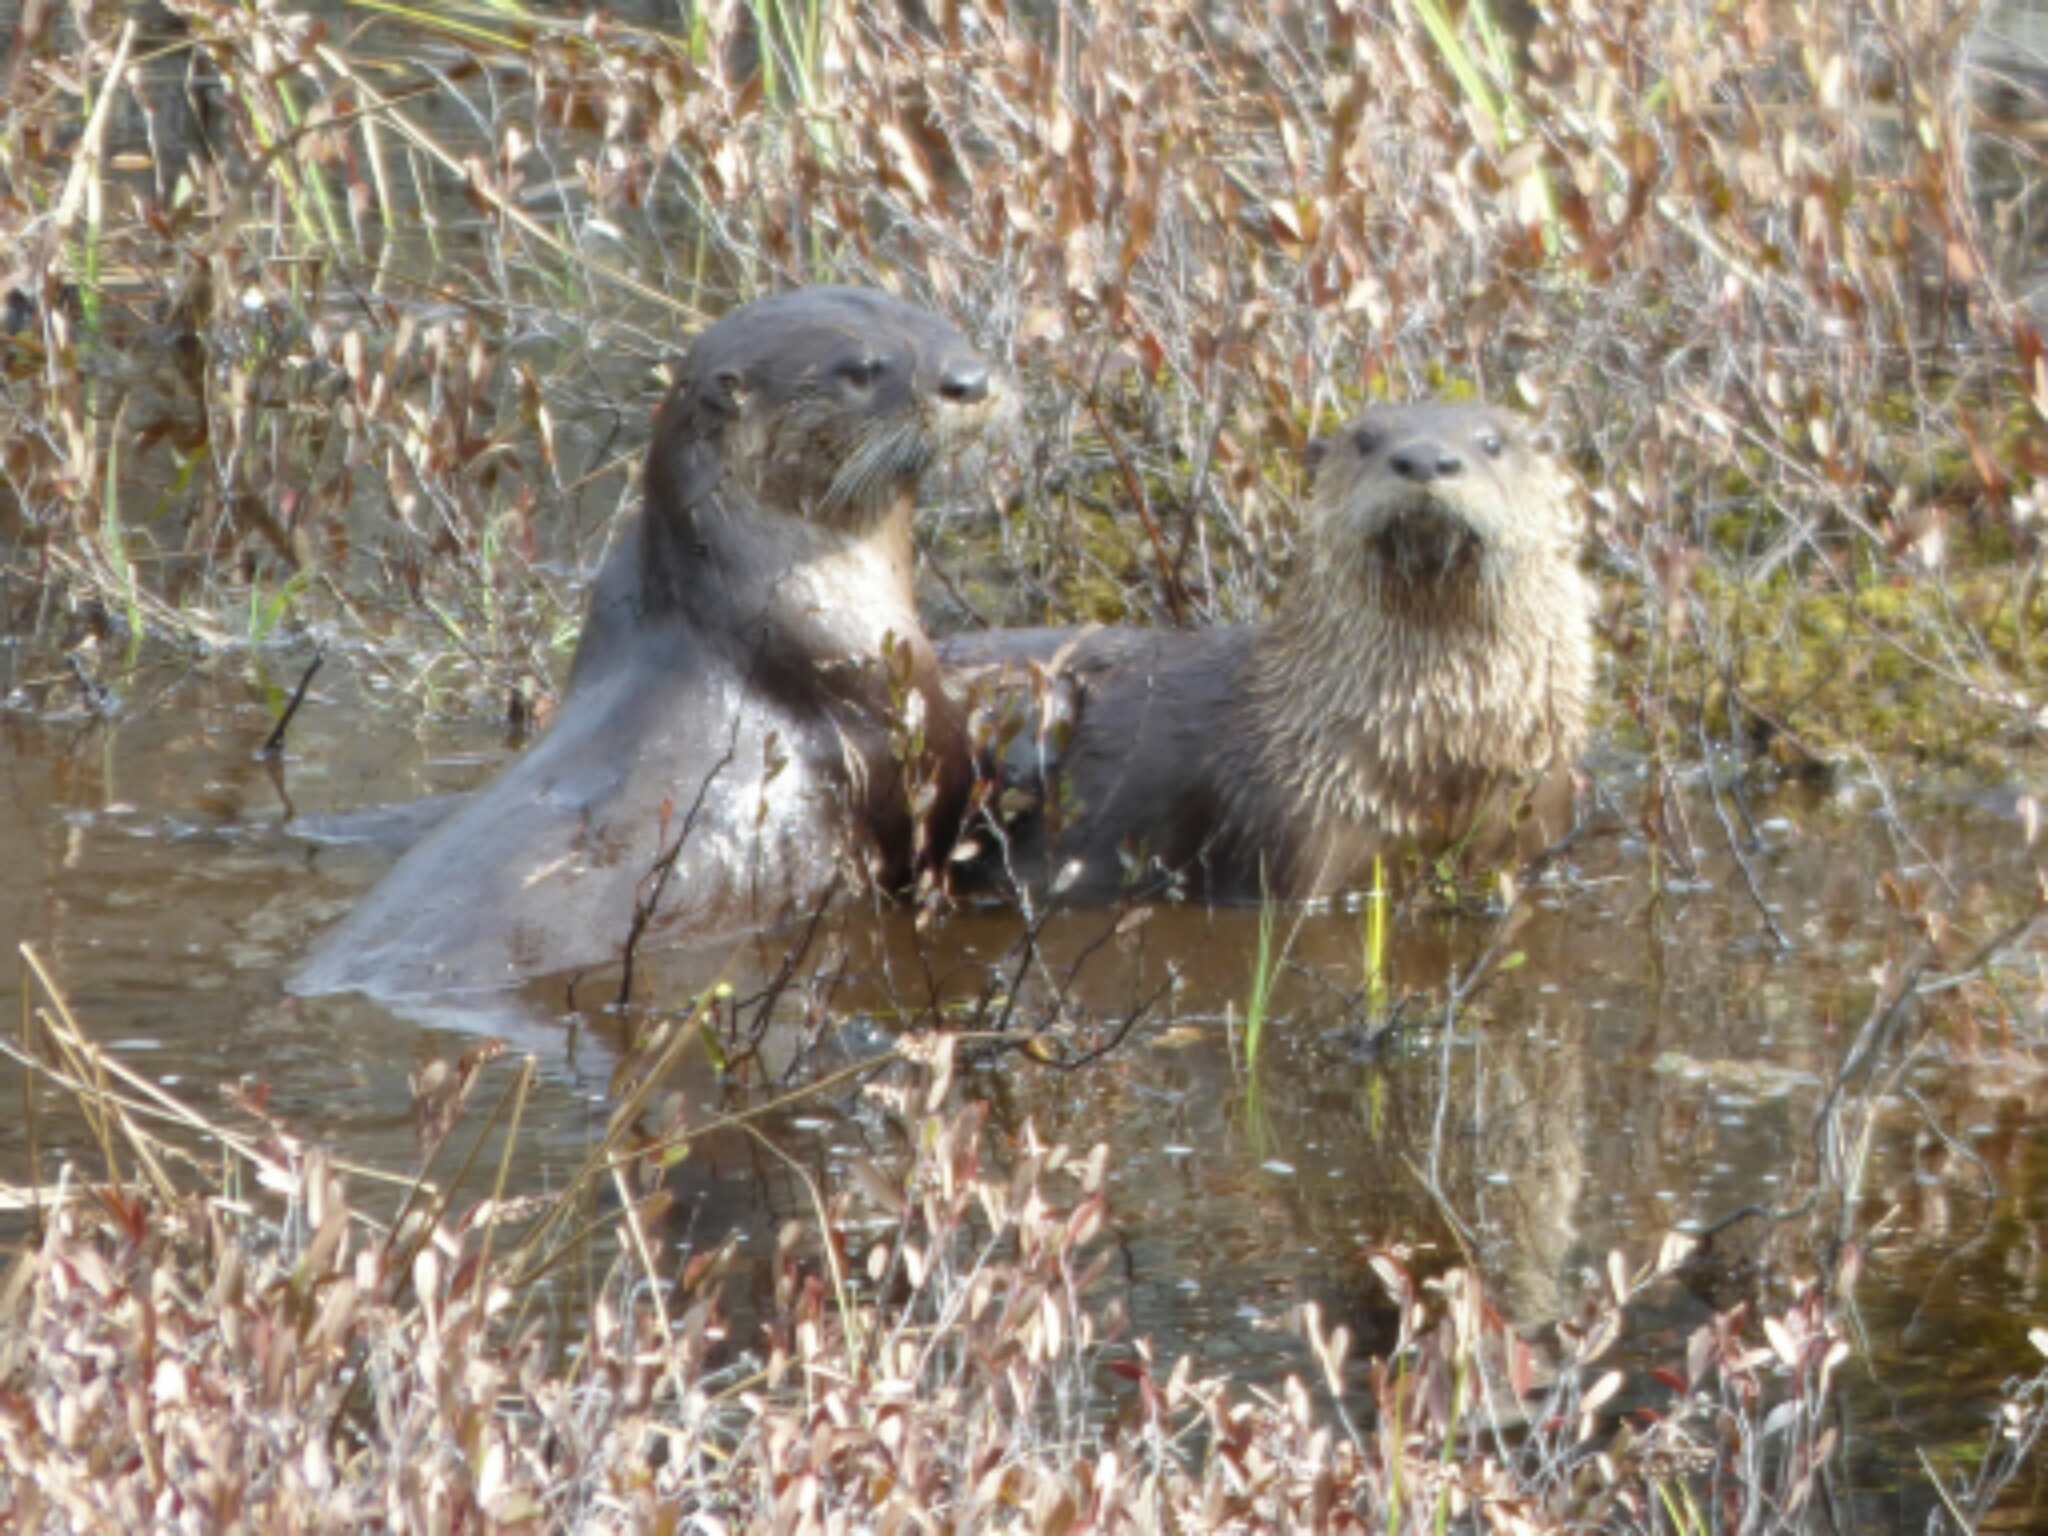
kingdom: Animalia
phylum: Chordata
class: Mammalia
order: Carnivora
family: Mustelidae
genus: Lontra
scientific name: Lontra canadensis
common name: North american river otter
